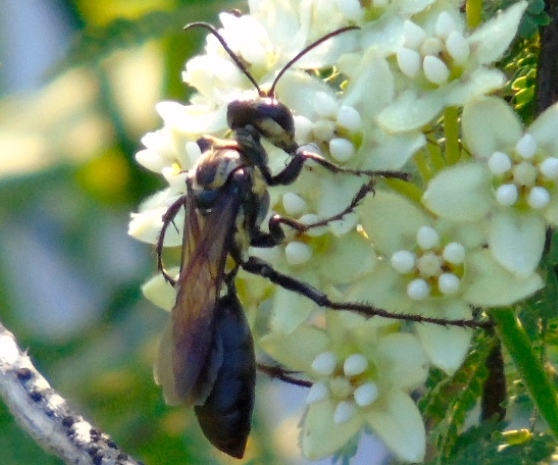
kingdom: Animalia
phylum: Arthropoda
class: Insecta
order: Hymenoptera
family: Sphecidae
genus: Sphex
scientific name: Sphex
